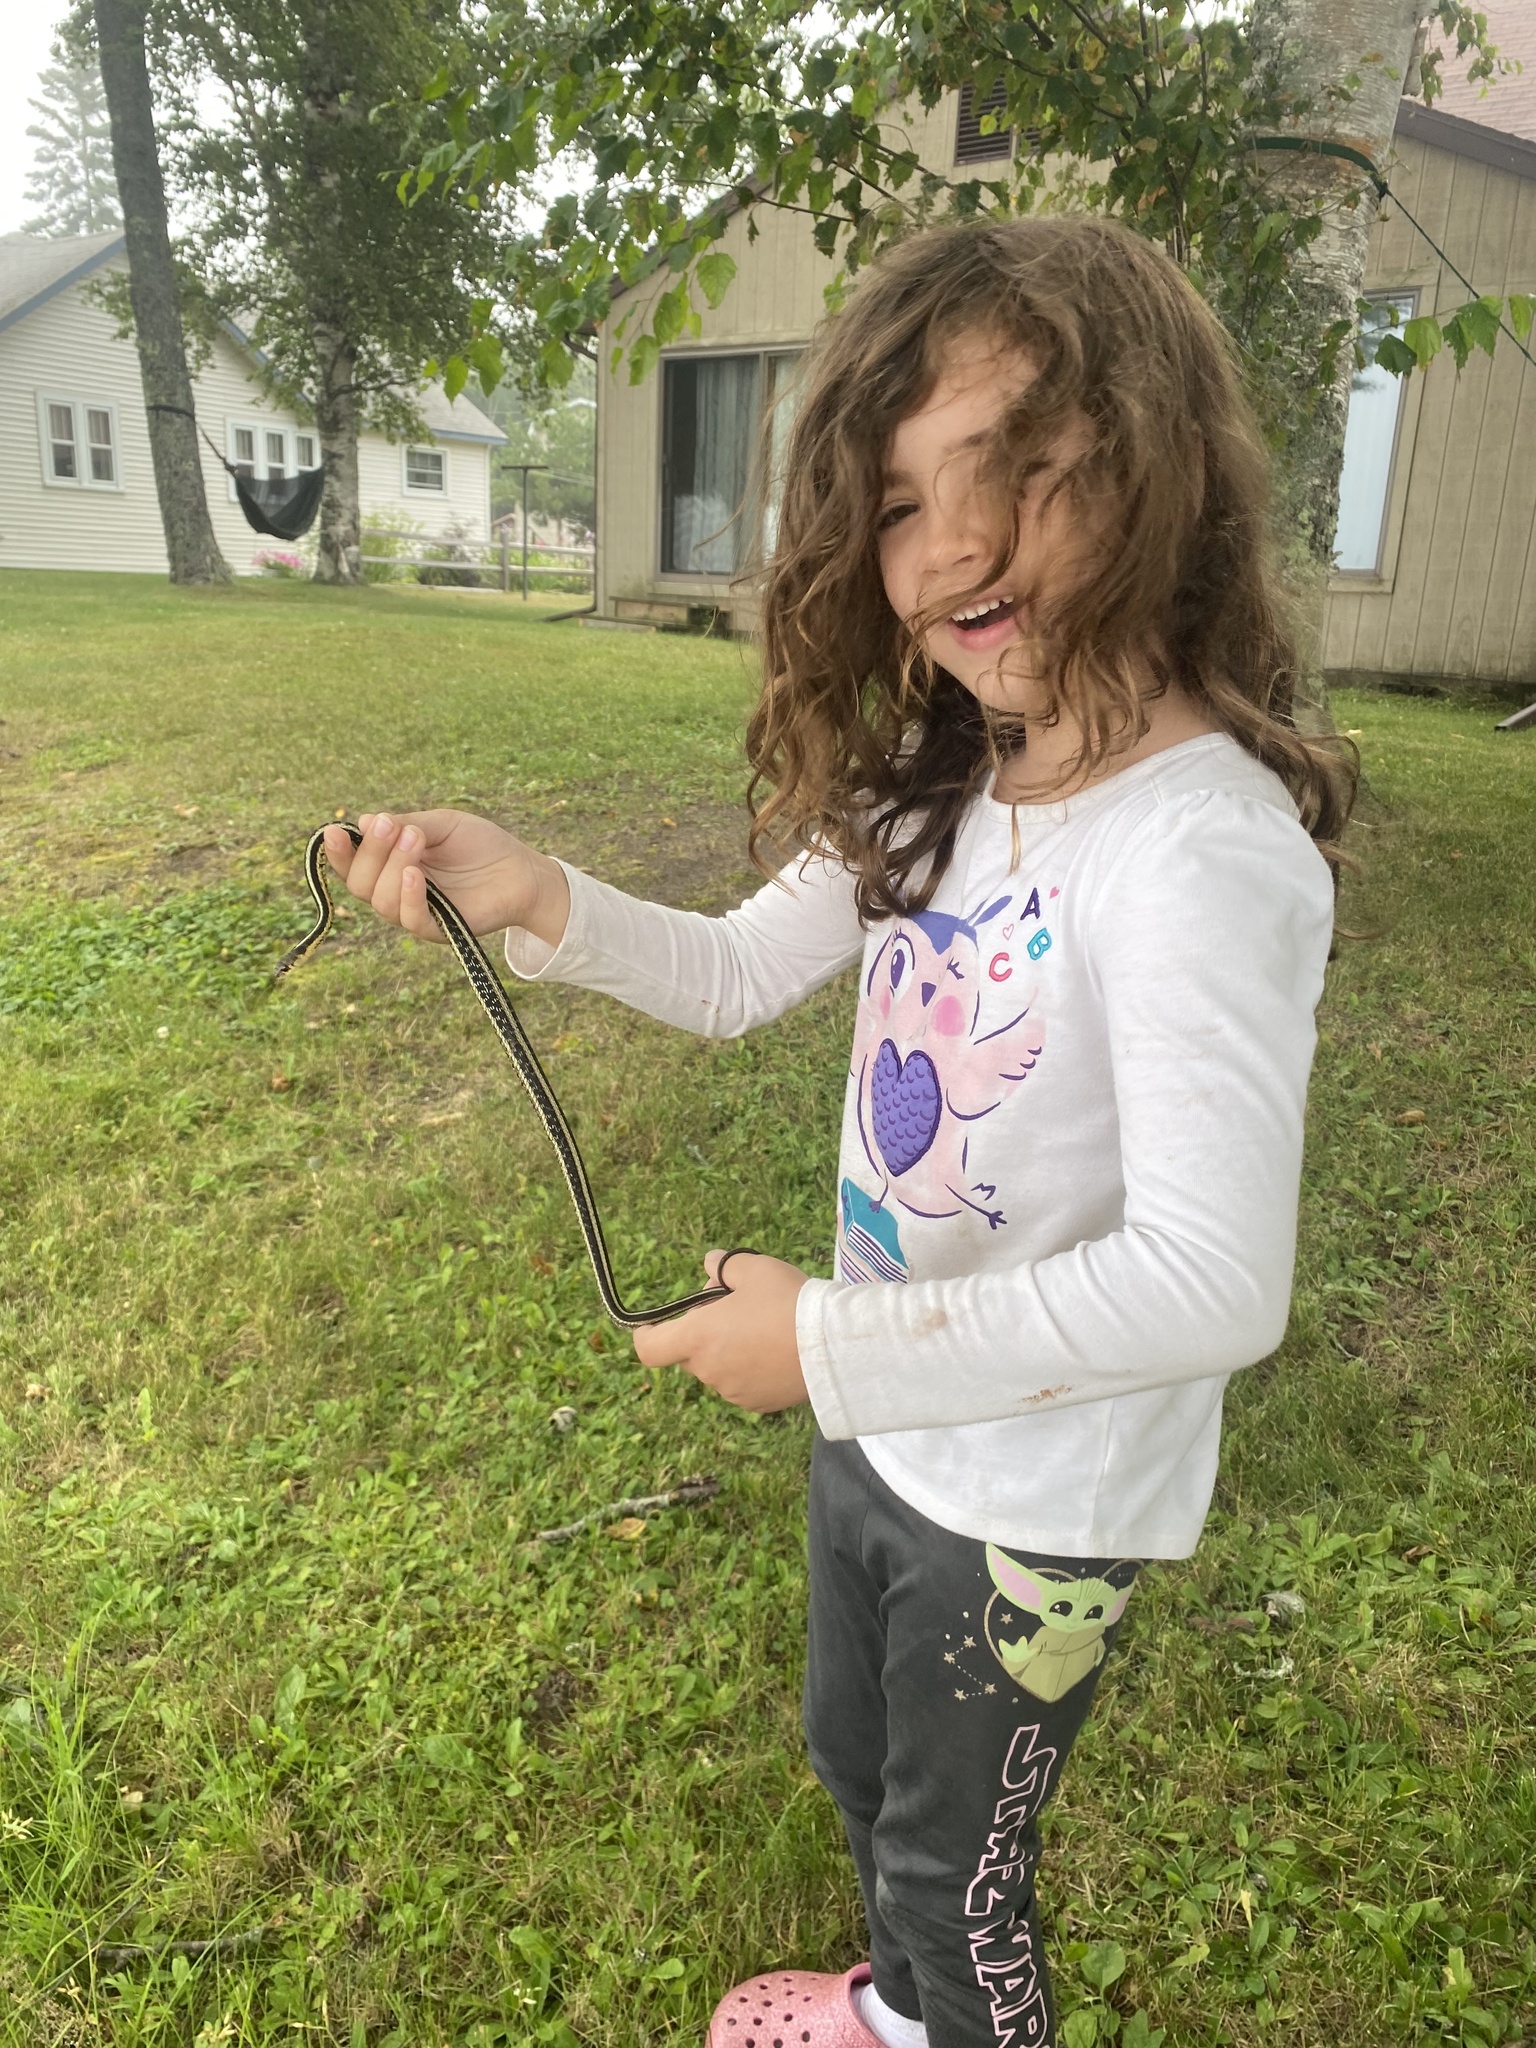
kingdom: Animalia
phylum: Chordata
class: Squamata
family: Colubridae
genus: Thamnophis
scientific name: Thamnophis sirtalis
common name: Common garter snake
